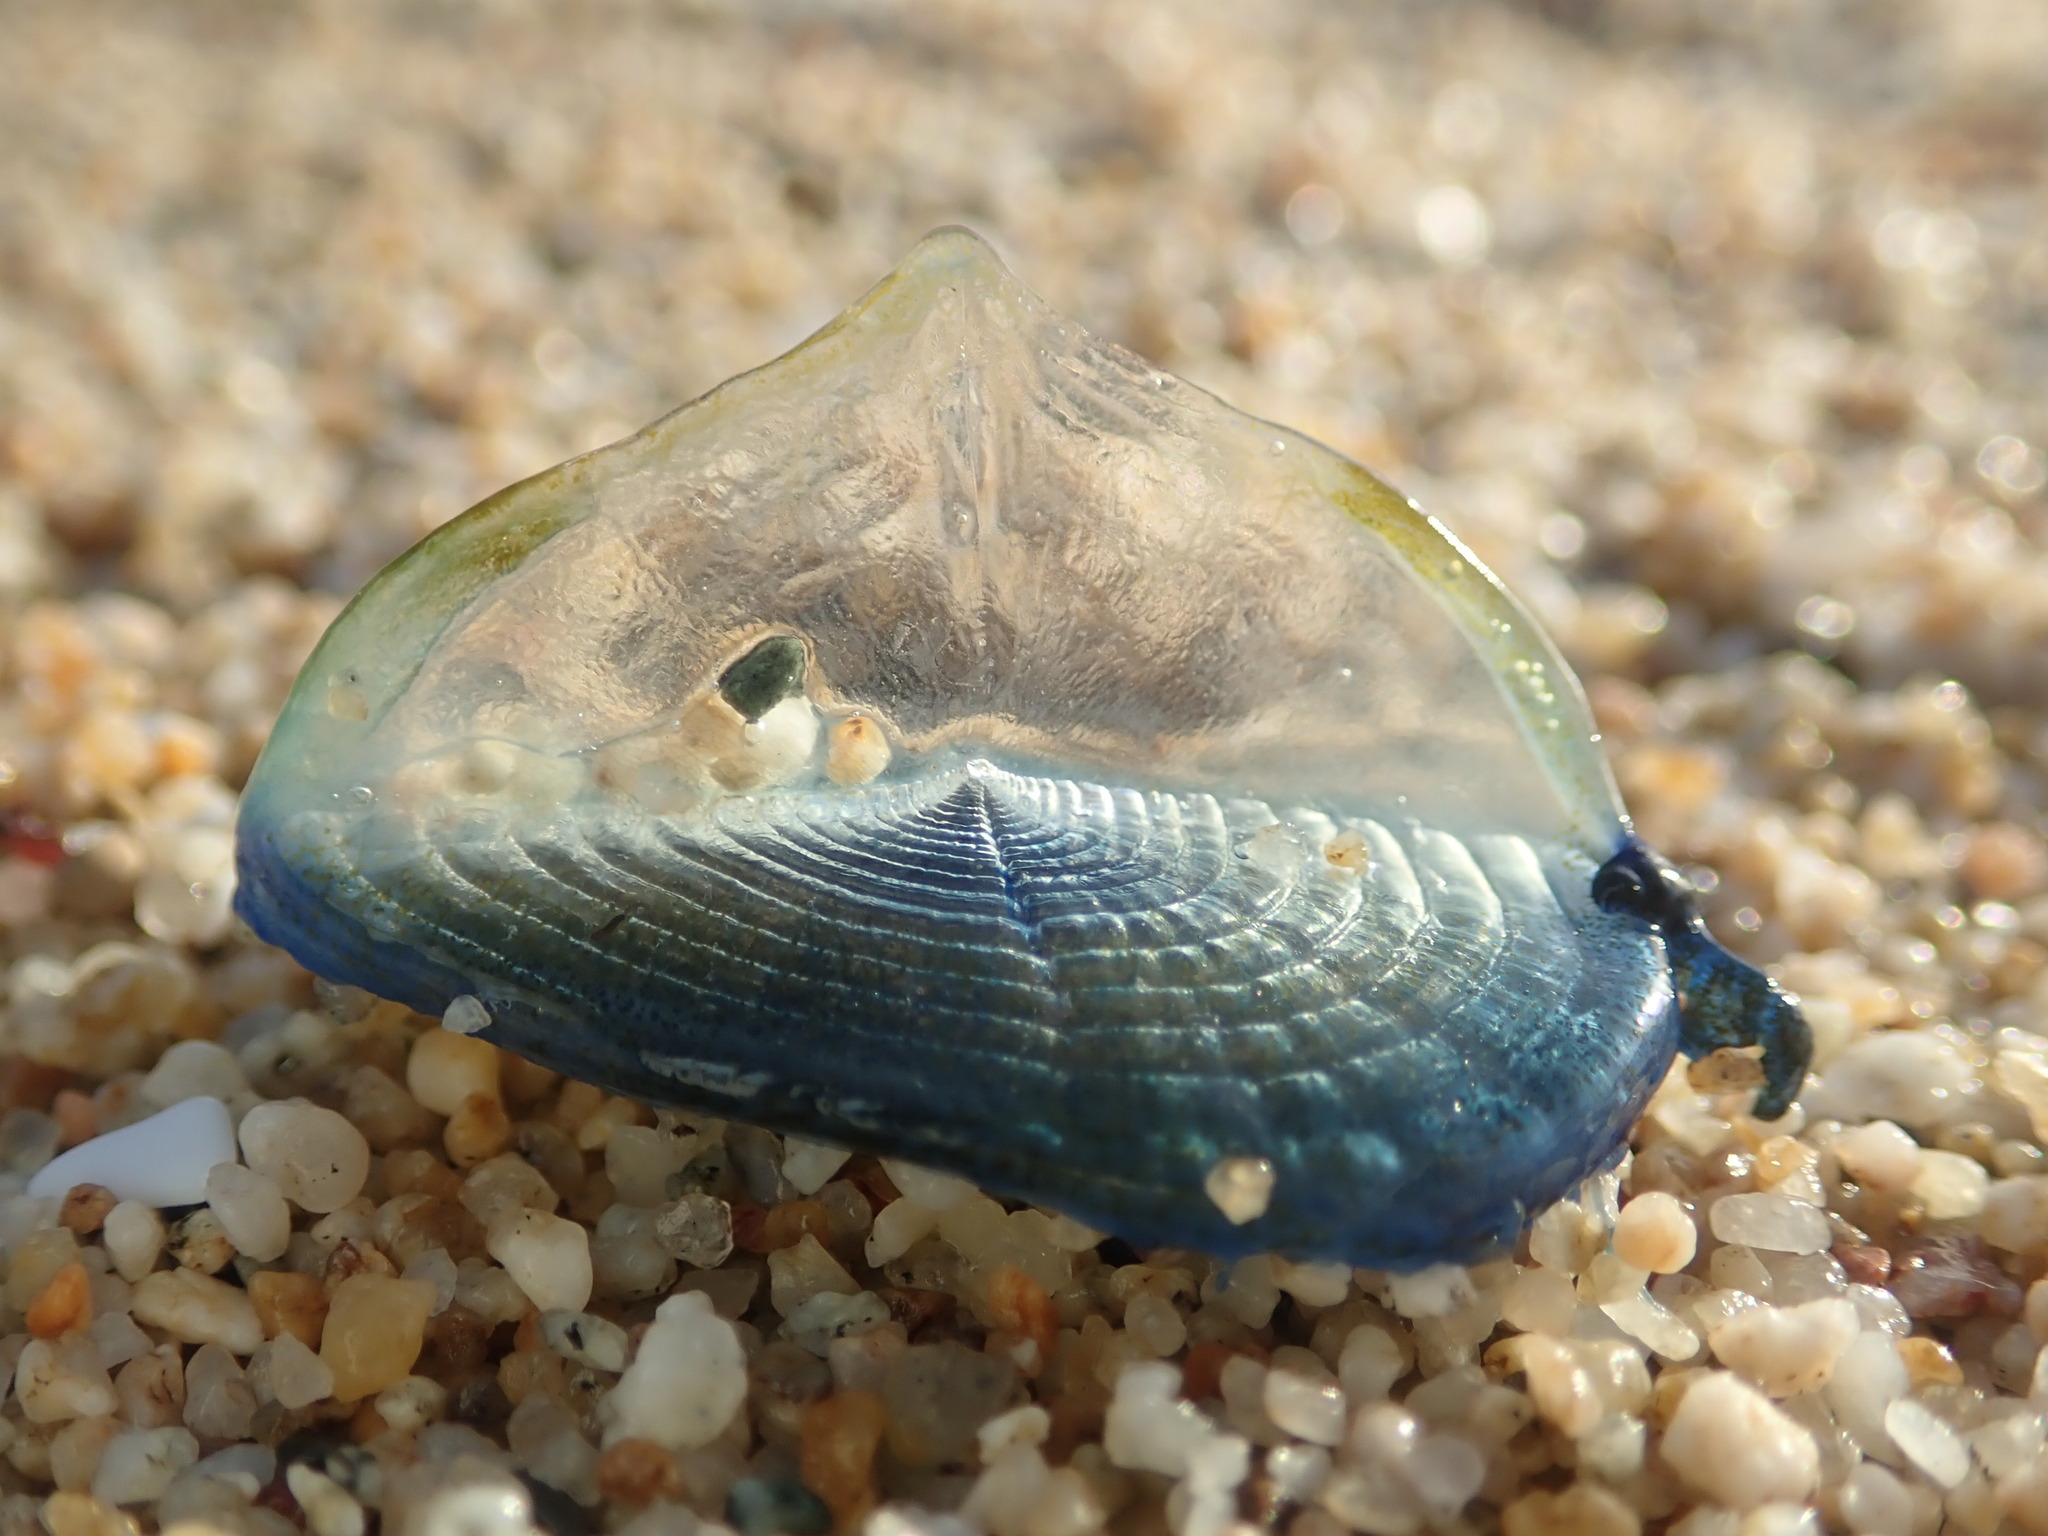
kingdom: Animalia
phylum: Cnidaria
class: Hydrozoa
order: Anthoathecata
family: Porpitidae
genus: Velella
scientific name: Velella velella
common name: By-the-wind-sailor
